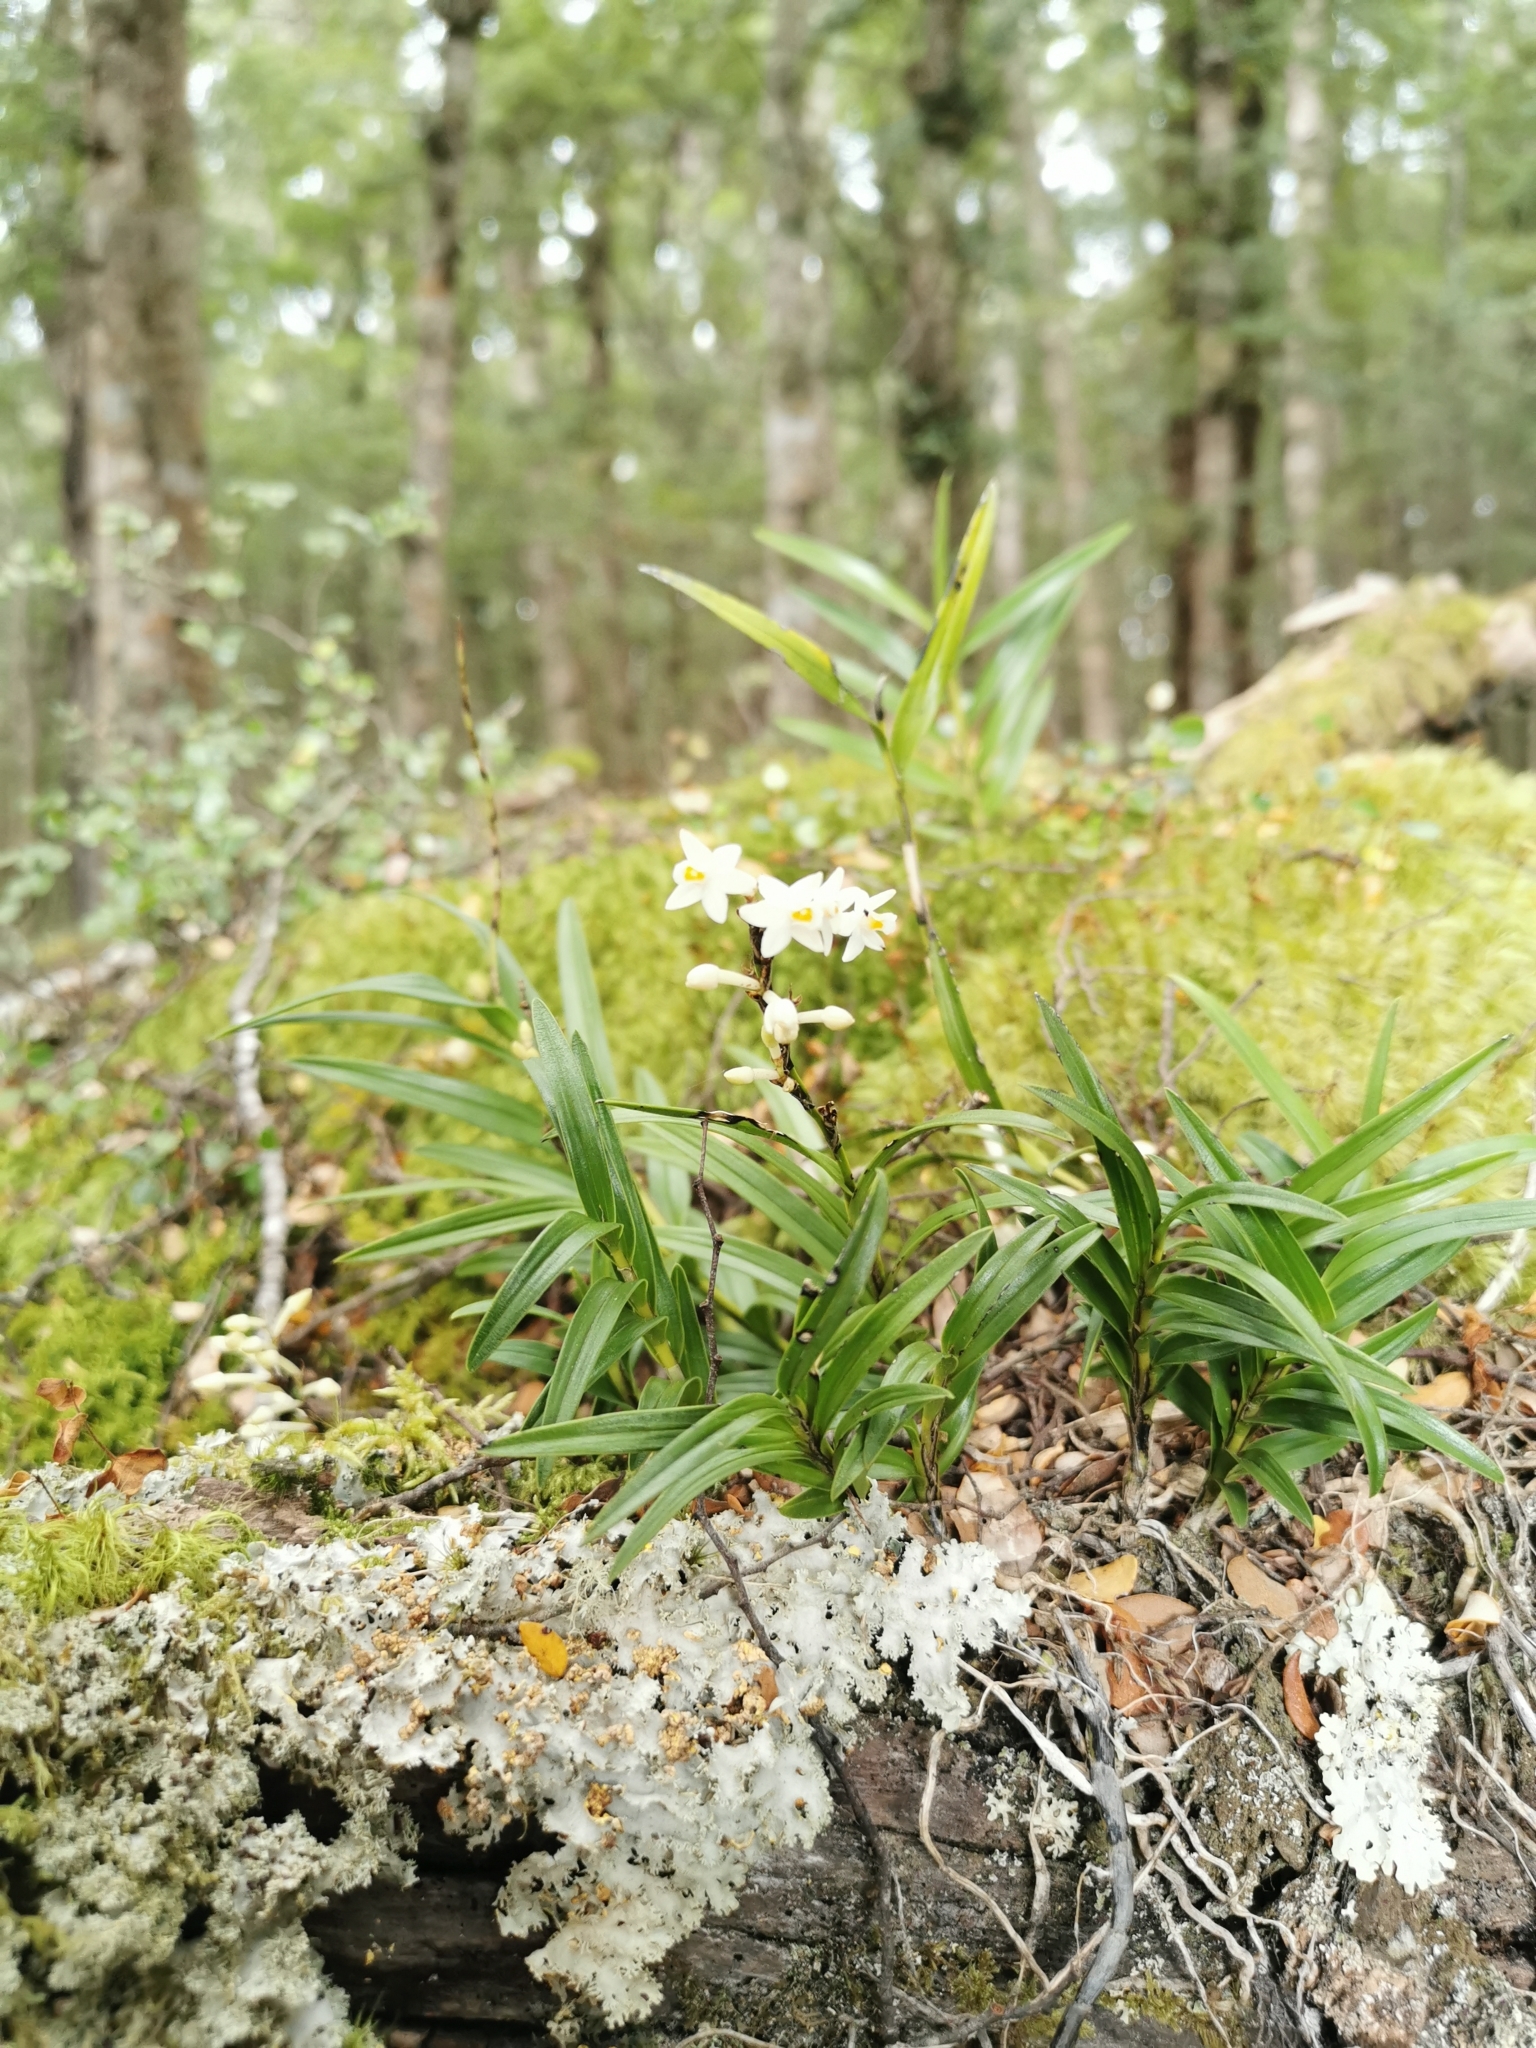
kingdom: Plantae
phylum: Tracheophyta
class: Liliopsida
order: Asparagales
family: Orchidaceae
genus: Earina
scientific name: Earina autumnalis
